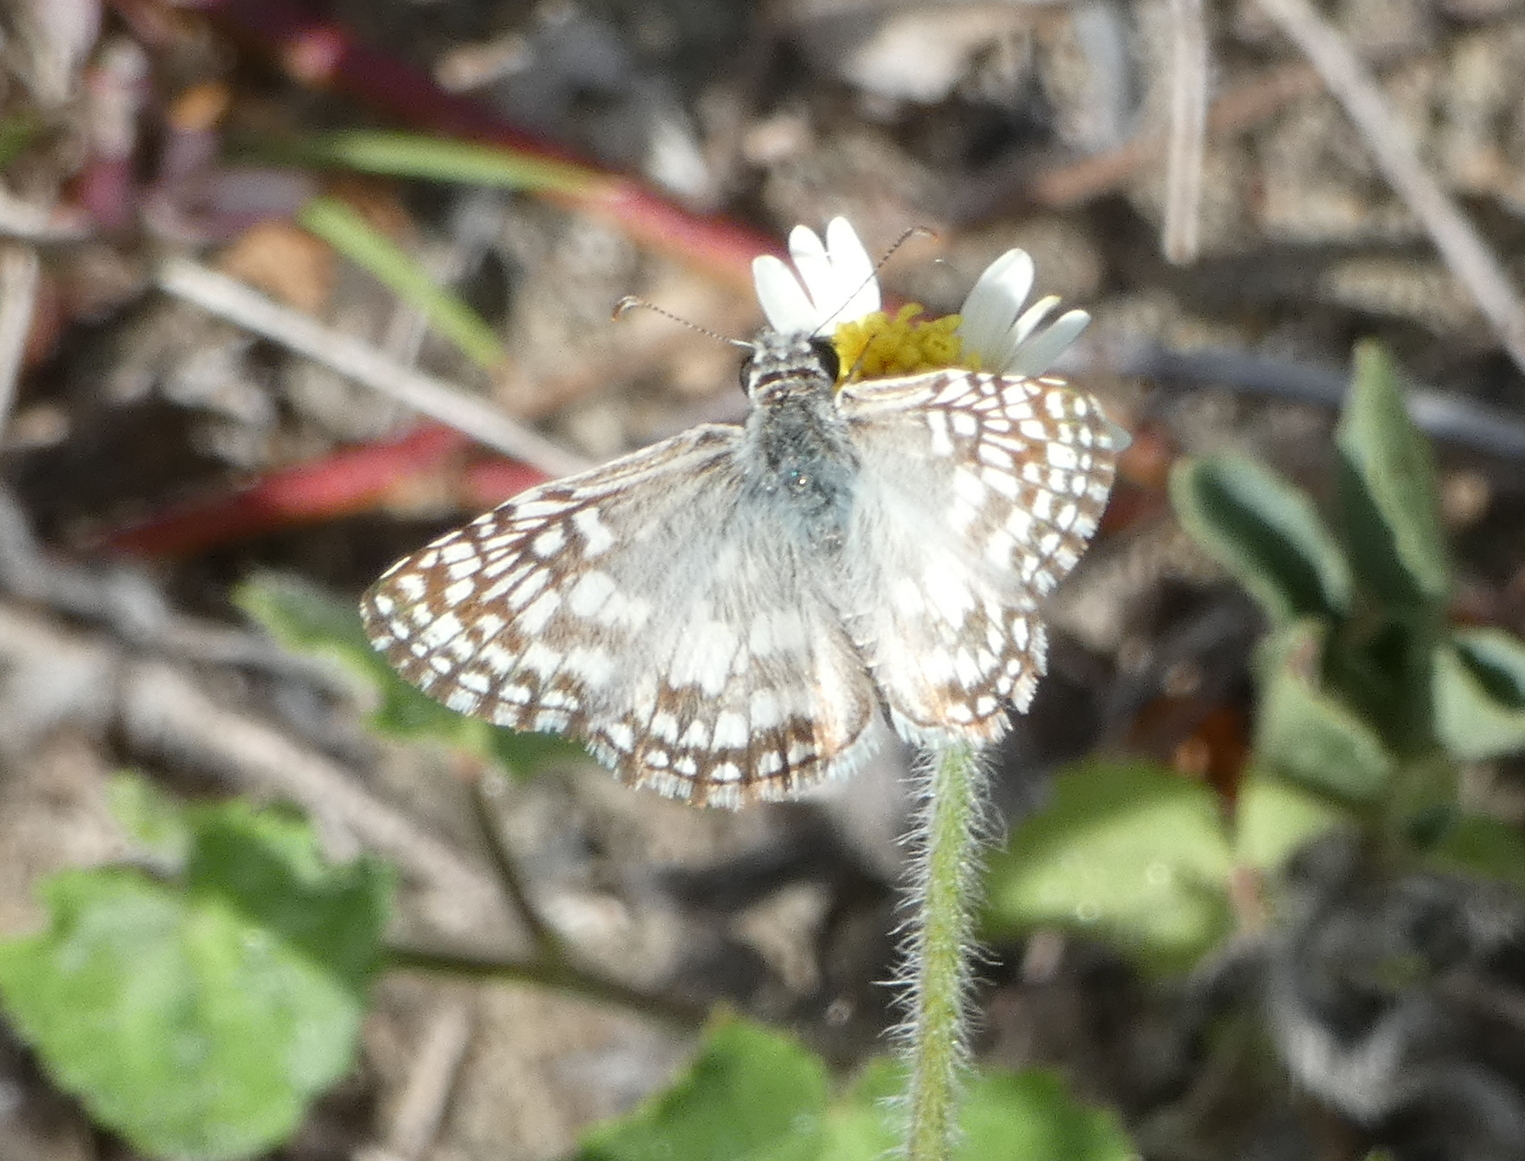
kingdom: Animalia
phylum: Arthropoda
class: Insecta
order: Lepidoptera
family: Hesperiidae
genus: Pyrgus
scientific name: Pyrgus oileus
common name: Tropical checkered-skipper
